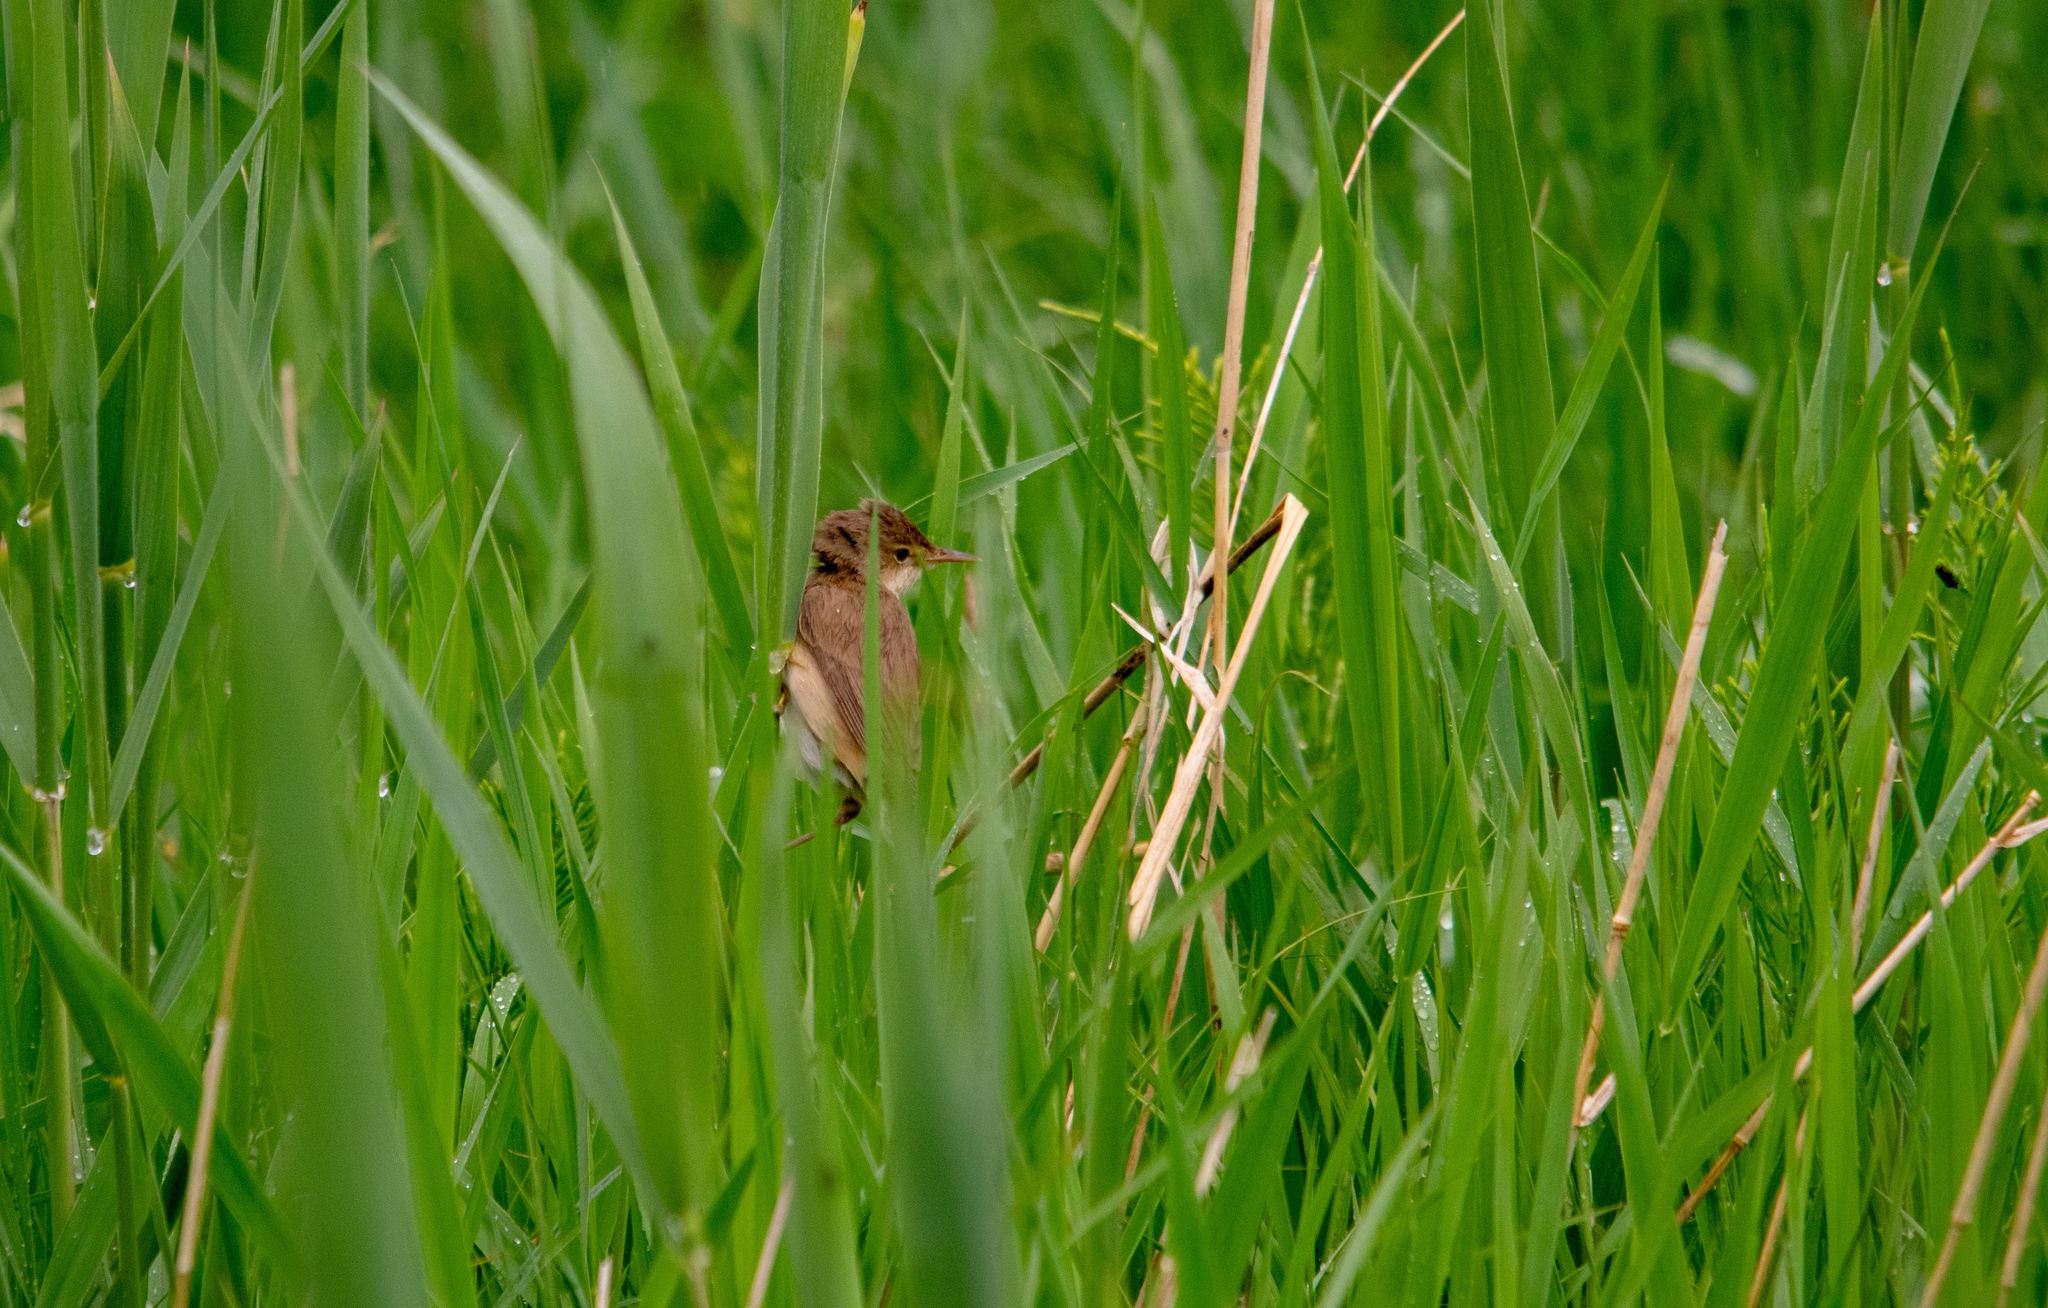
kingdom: Animalia
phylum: Chordata
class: Aves
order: Passeriformes
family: Acrocephalidae
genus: Acrocephalus
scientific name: Acrocephalus scirpaceus
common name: Eurasian reed warbler
